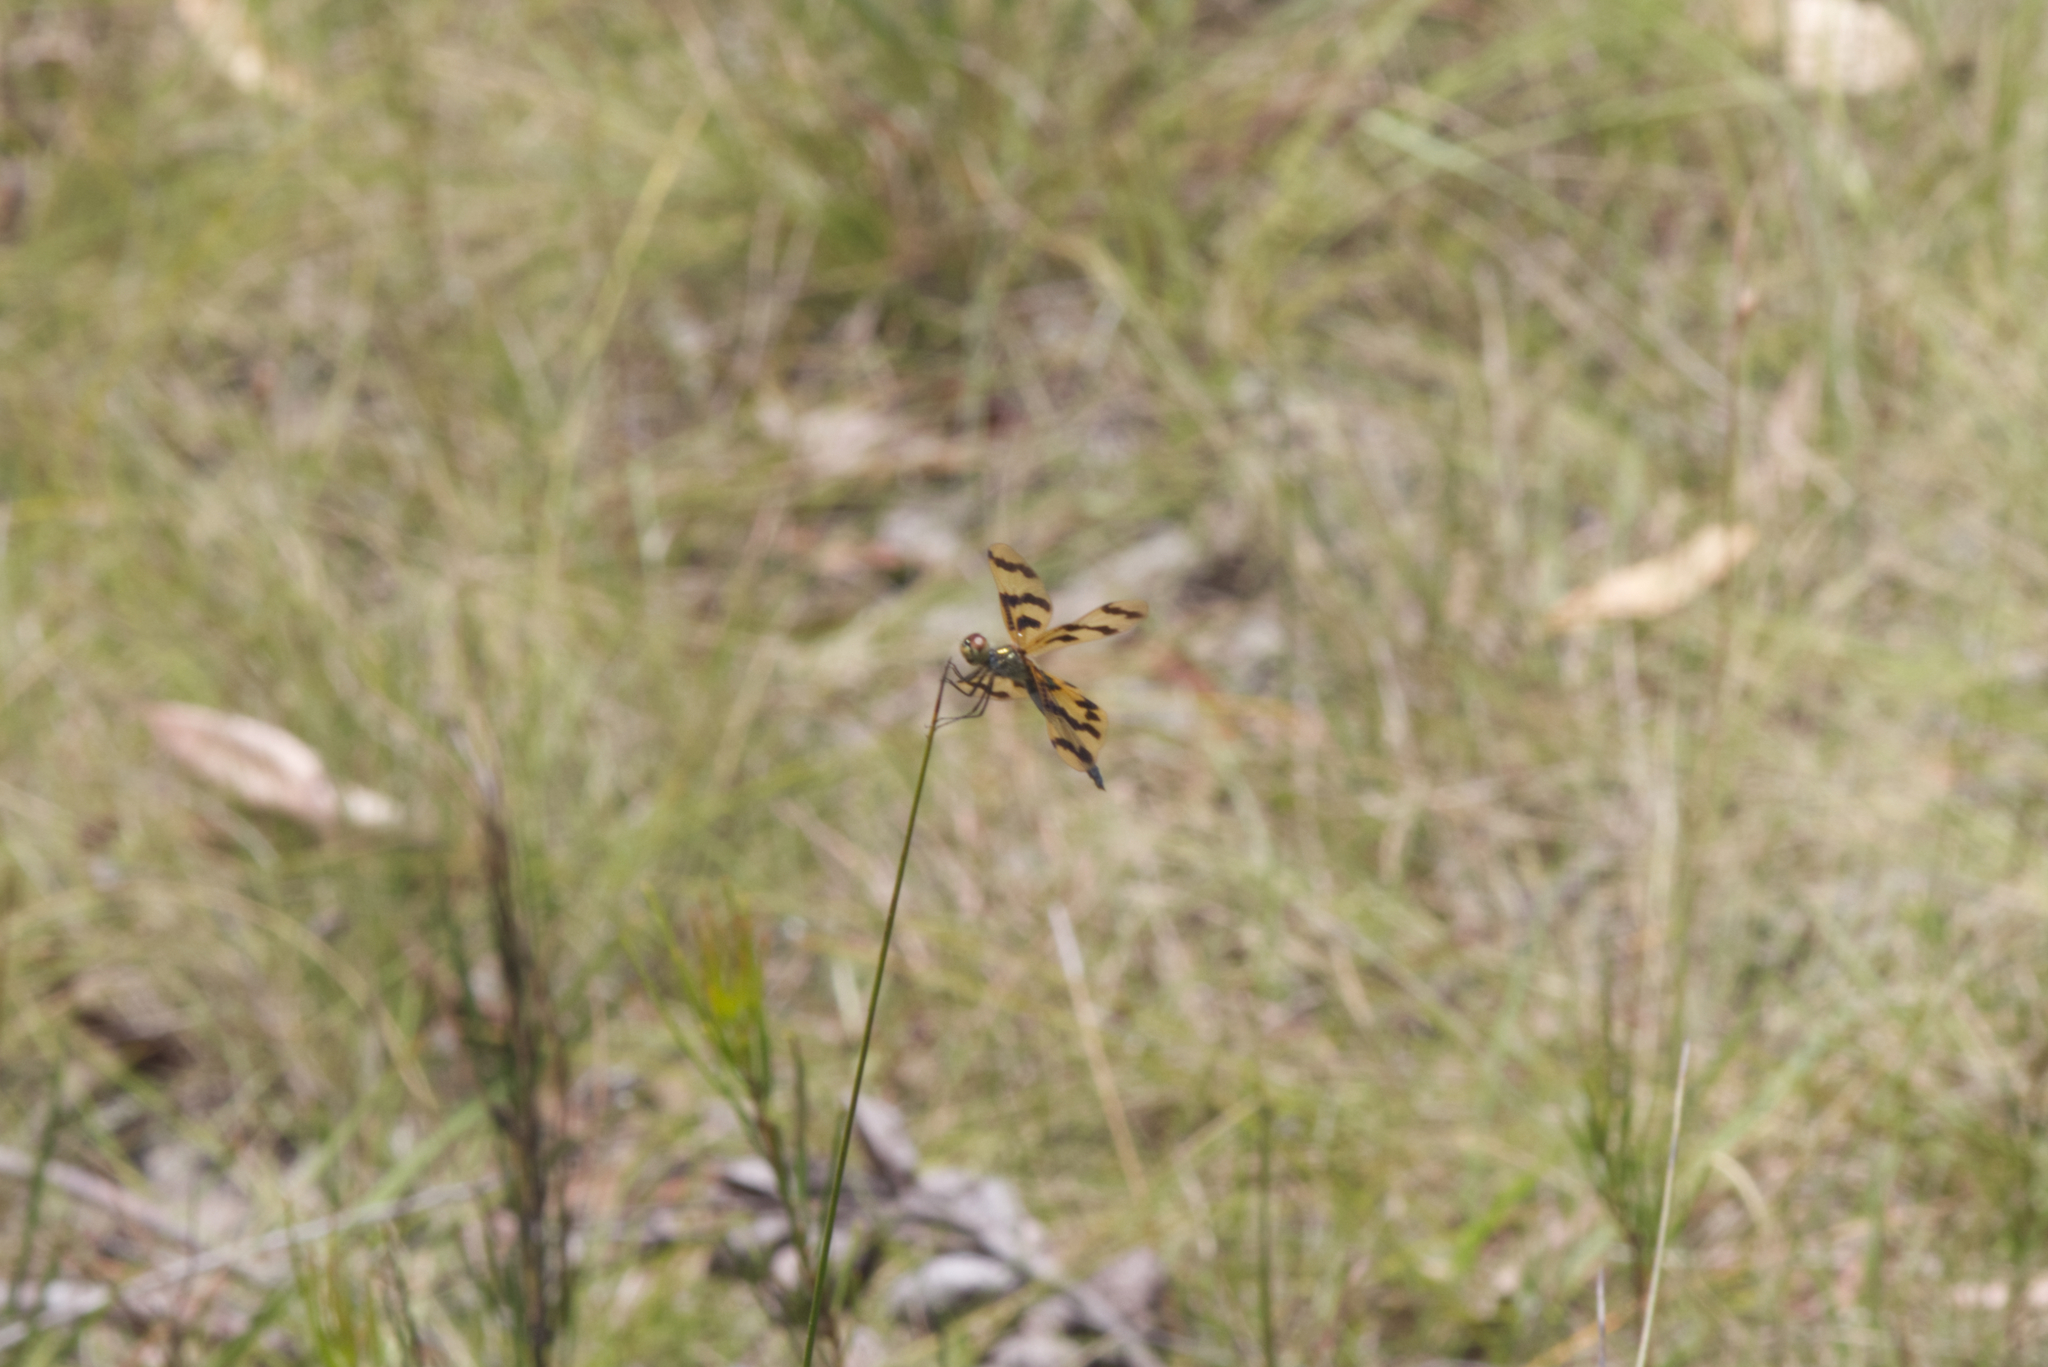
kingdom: Animalia
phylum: Arthropoda
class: Insecta
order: Odonata
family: Libellulidae
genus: Rhyothemis
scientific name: Rhyothemis graphiptera
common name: Graphic flutterer
